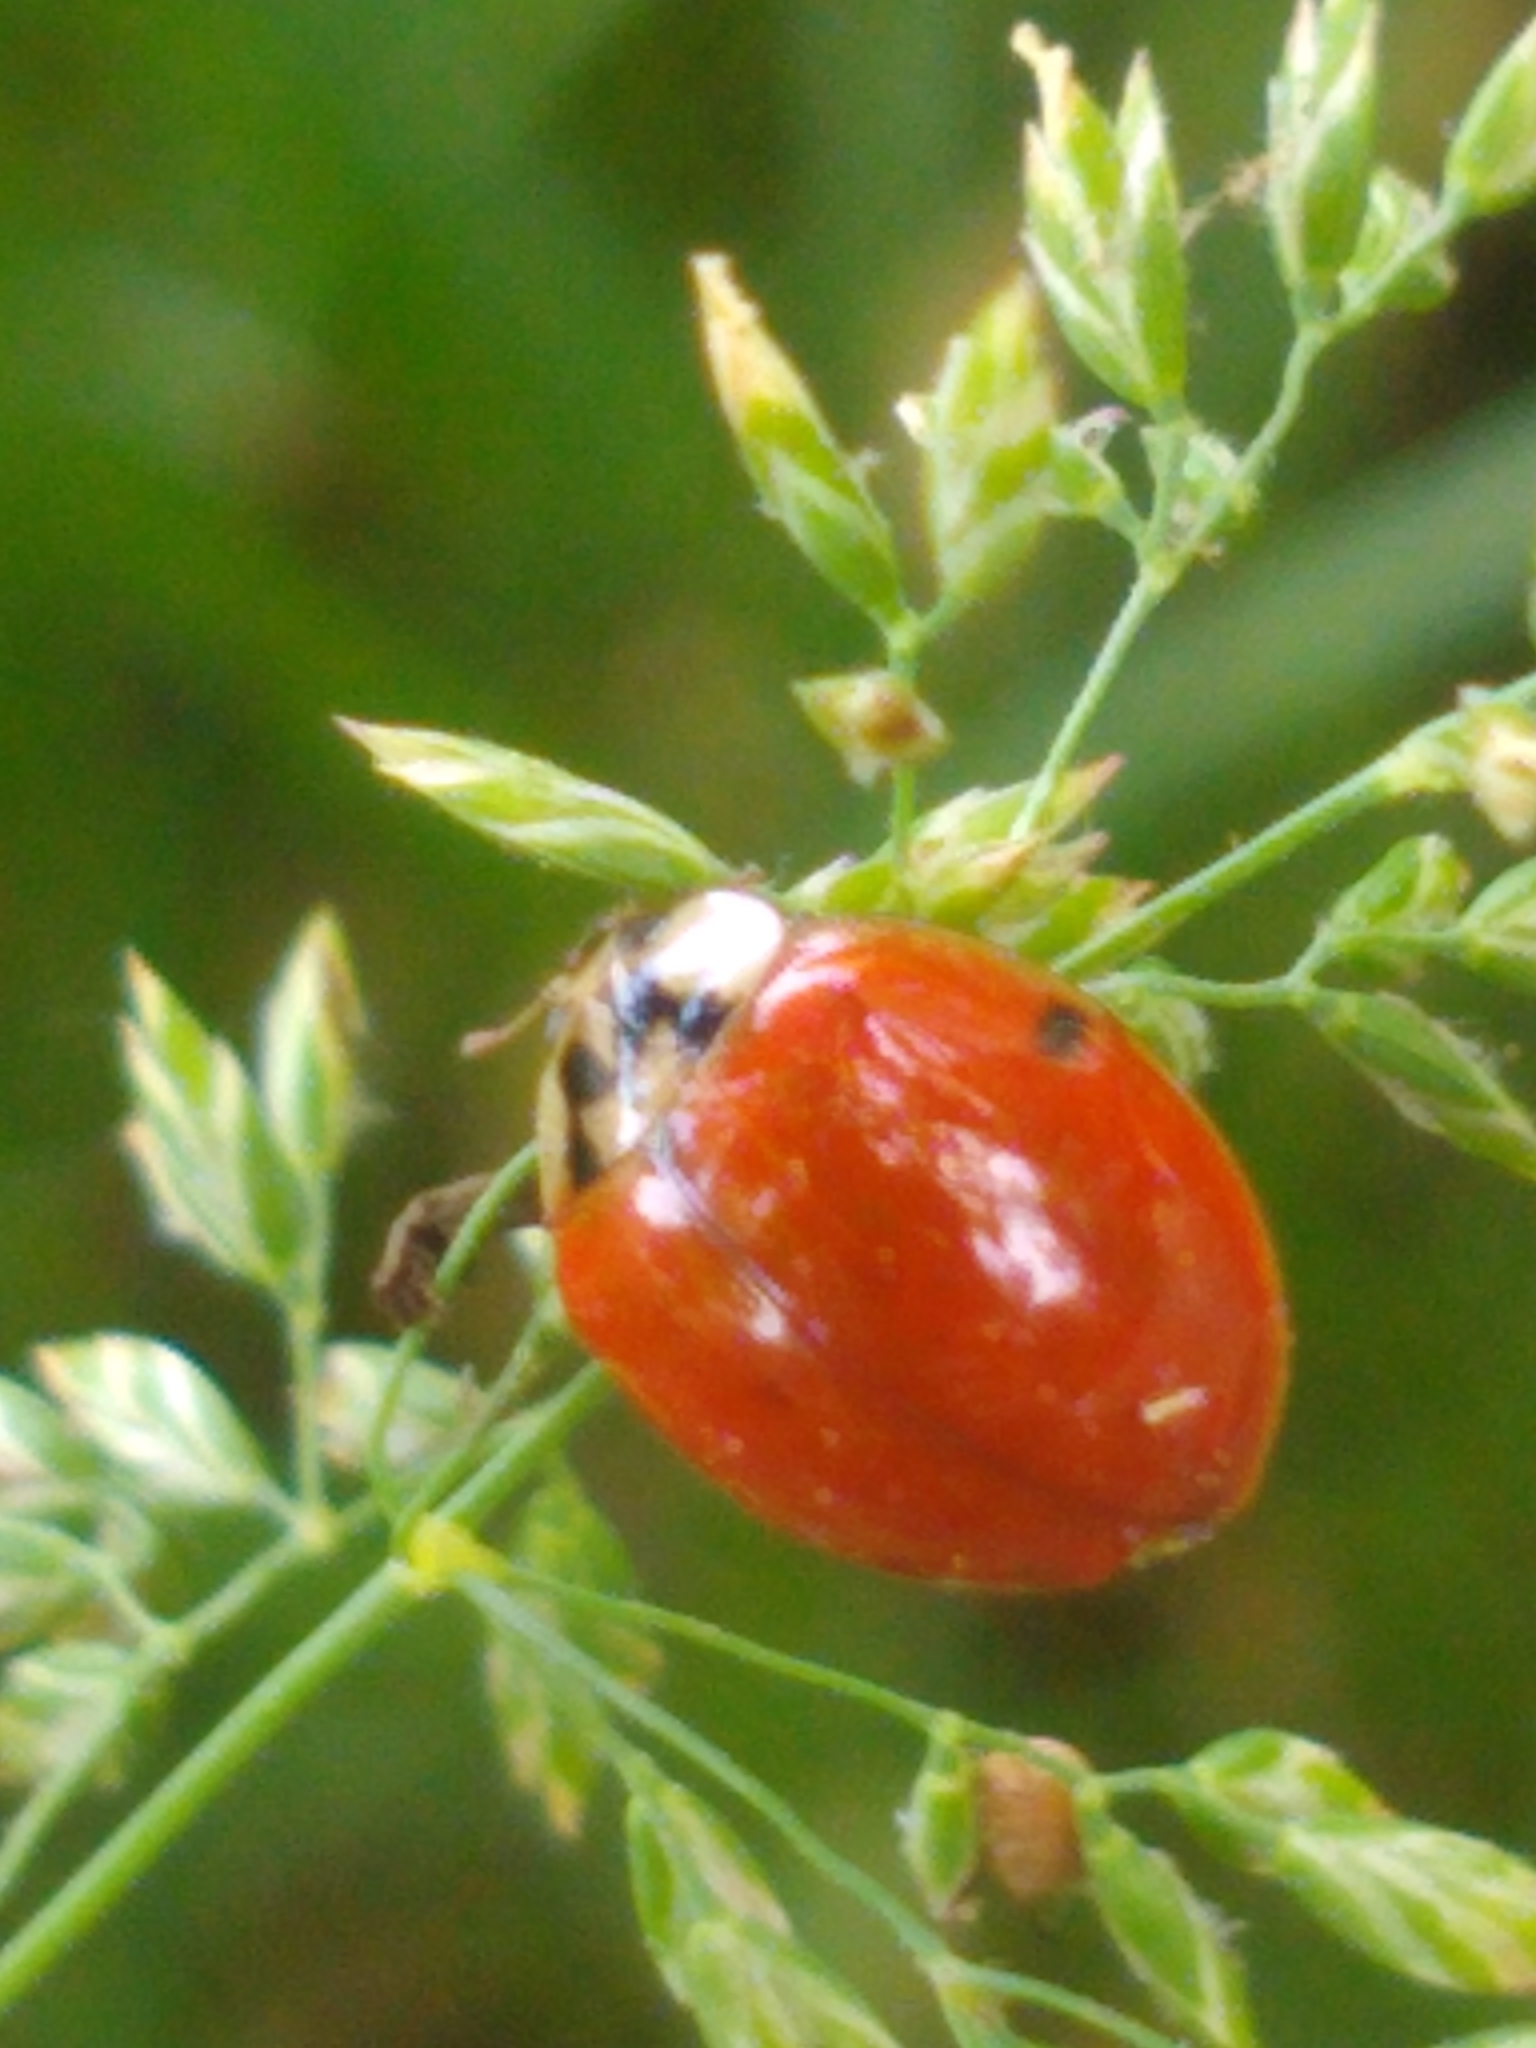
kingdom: Animalia
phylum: Arthropoda
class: Insecta
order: Coleoptera
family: Coccinellidae
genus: Harmonia
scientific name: Harmonia axyridis
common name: Harlequin ladybird
